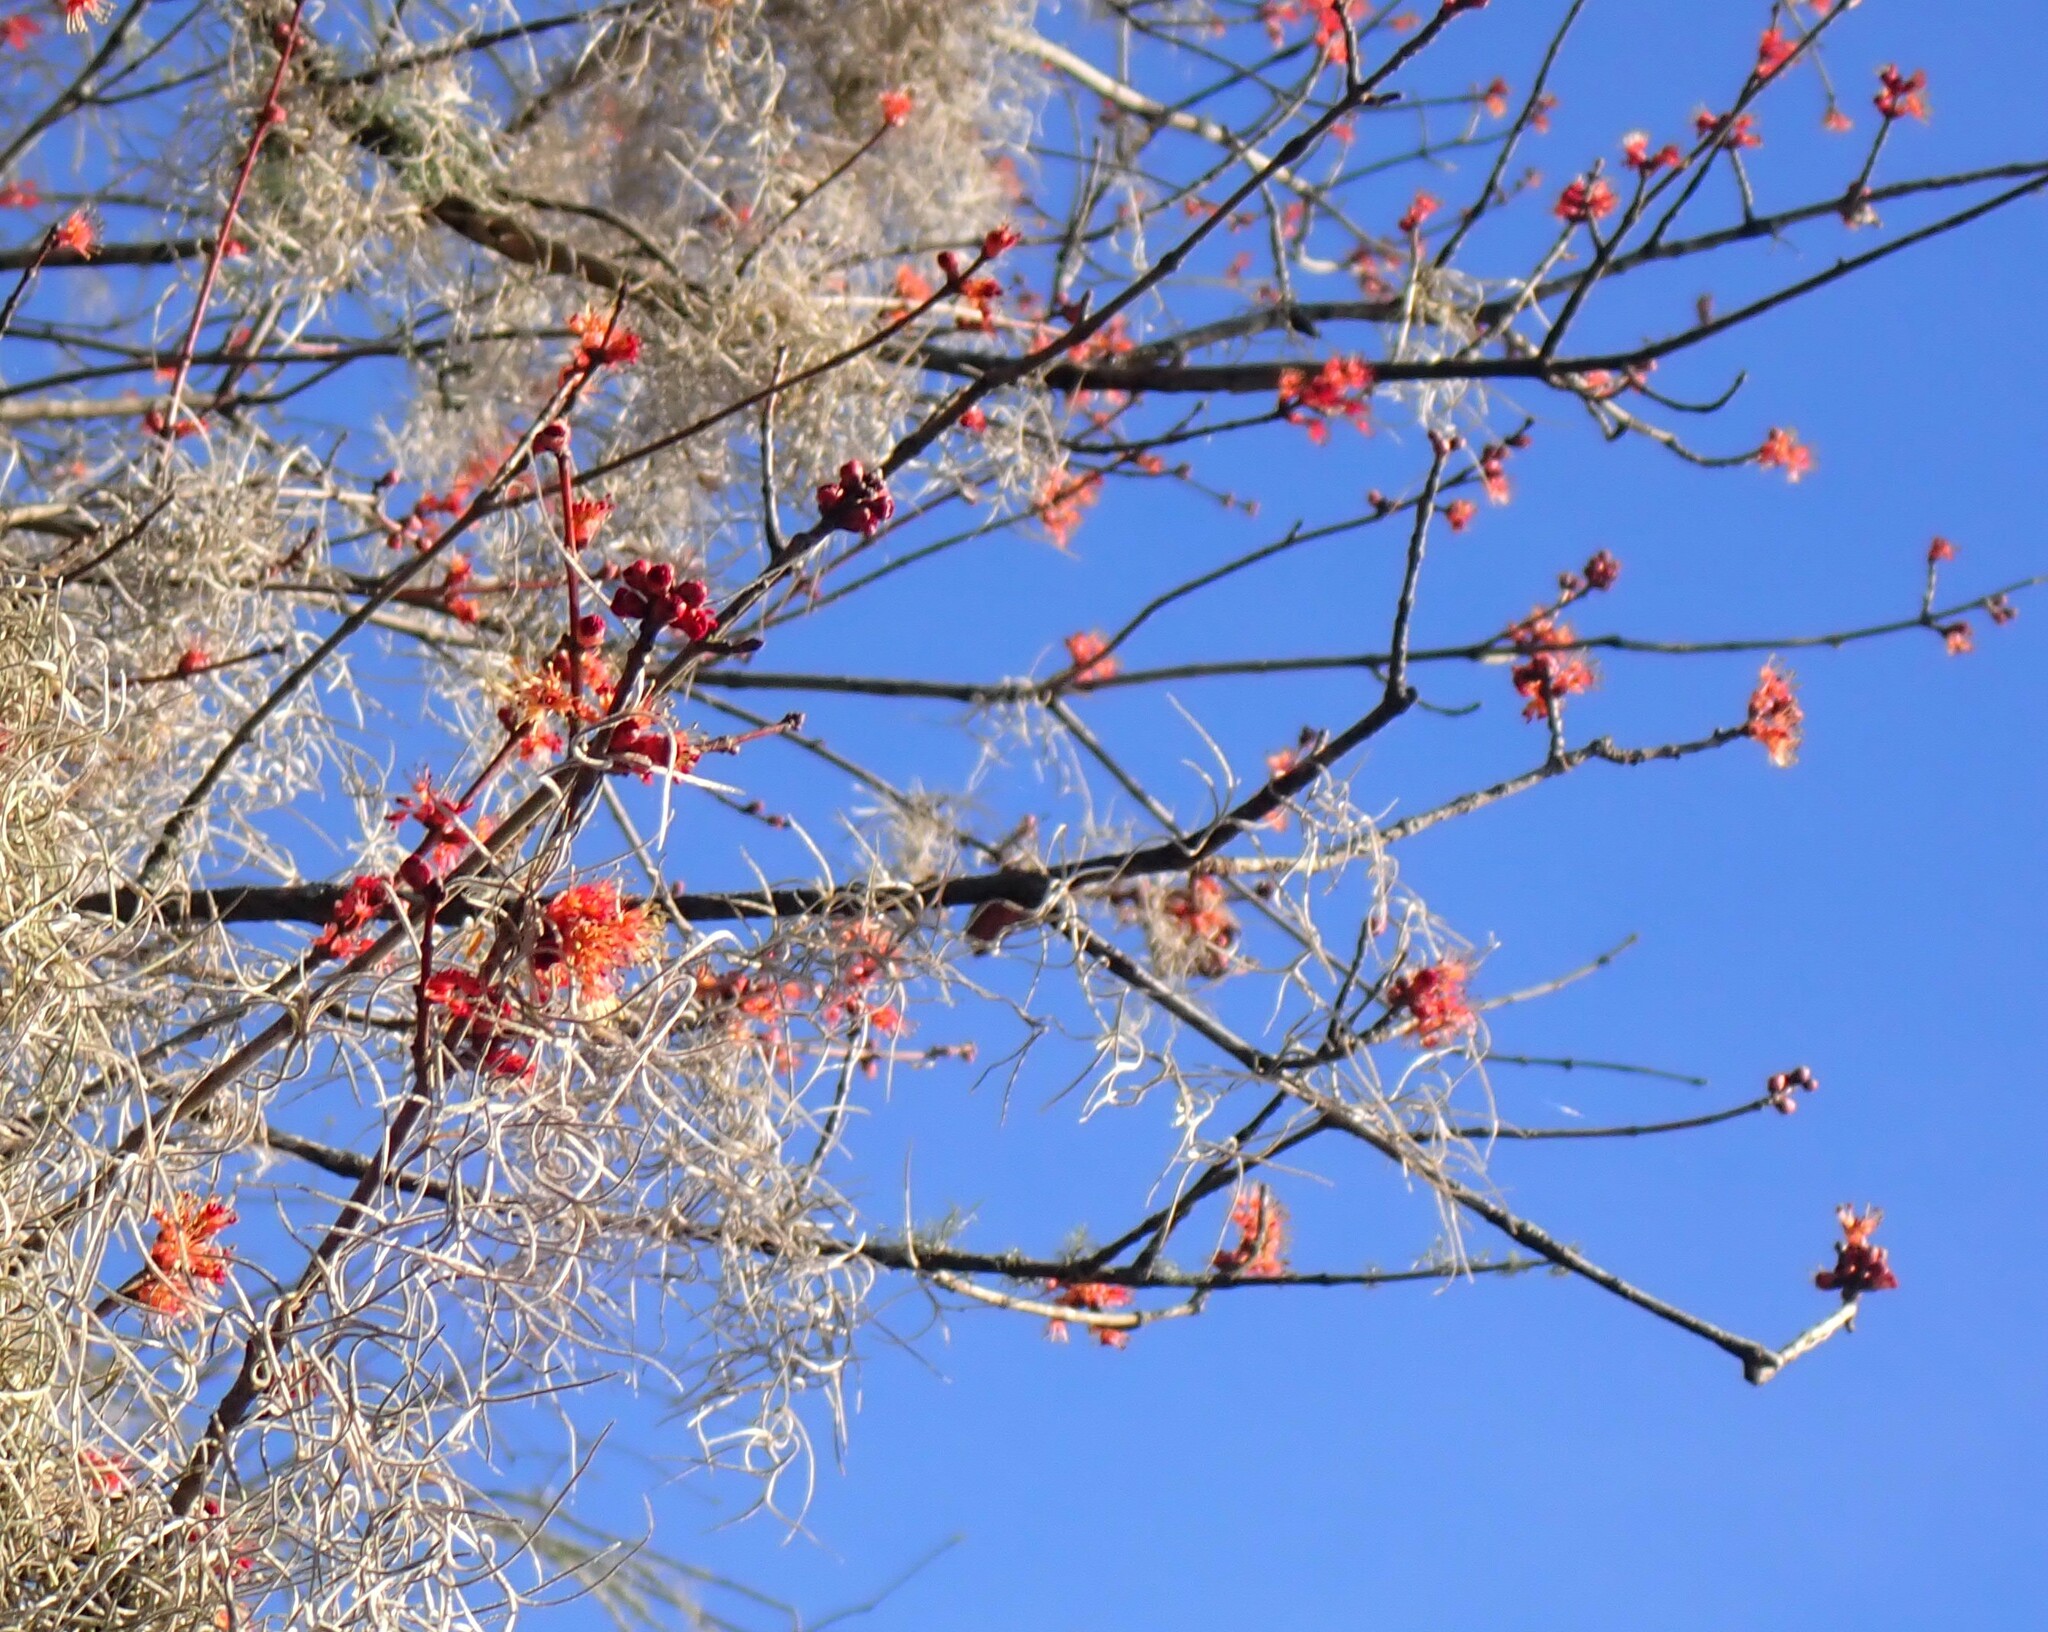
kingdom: Plantae
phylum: Tracheophyta
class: Magnoliopsida
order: Sapindales
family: Sapindaceae
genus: Acer
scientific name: Acer rubrum
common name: Red maple
